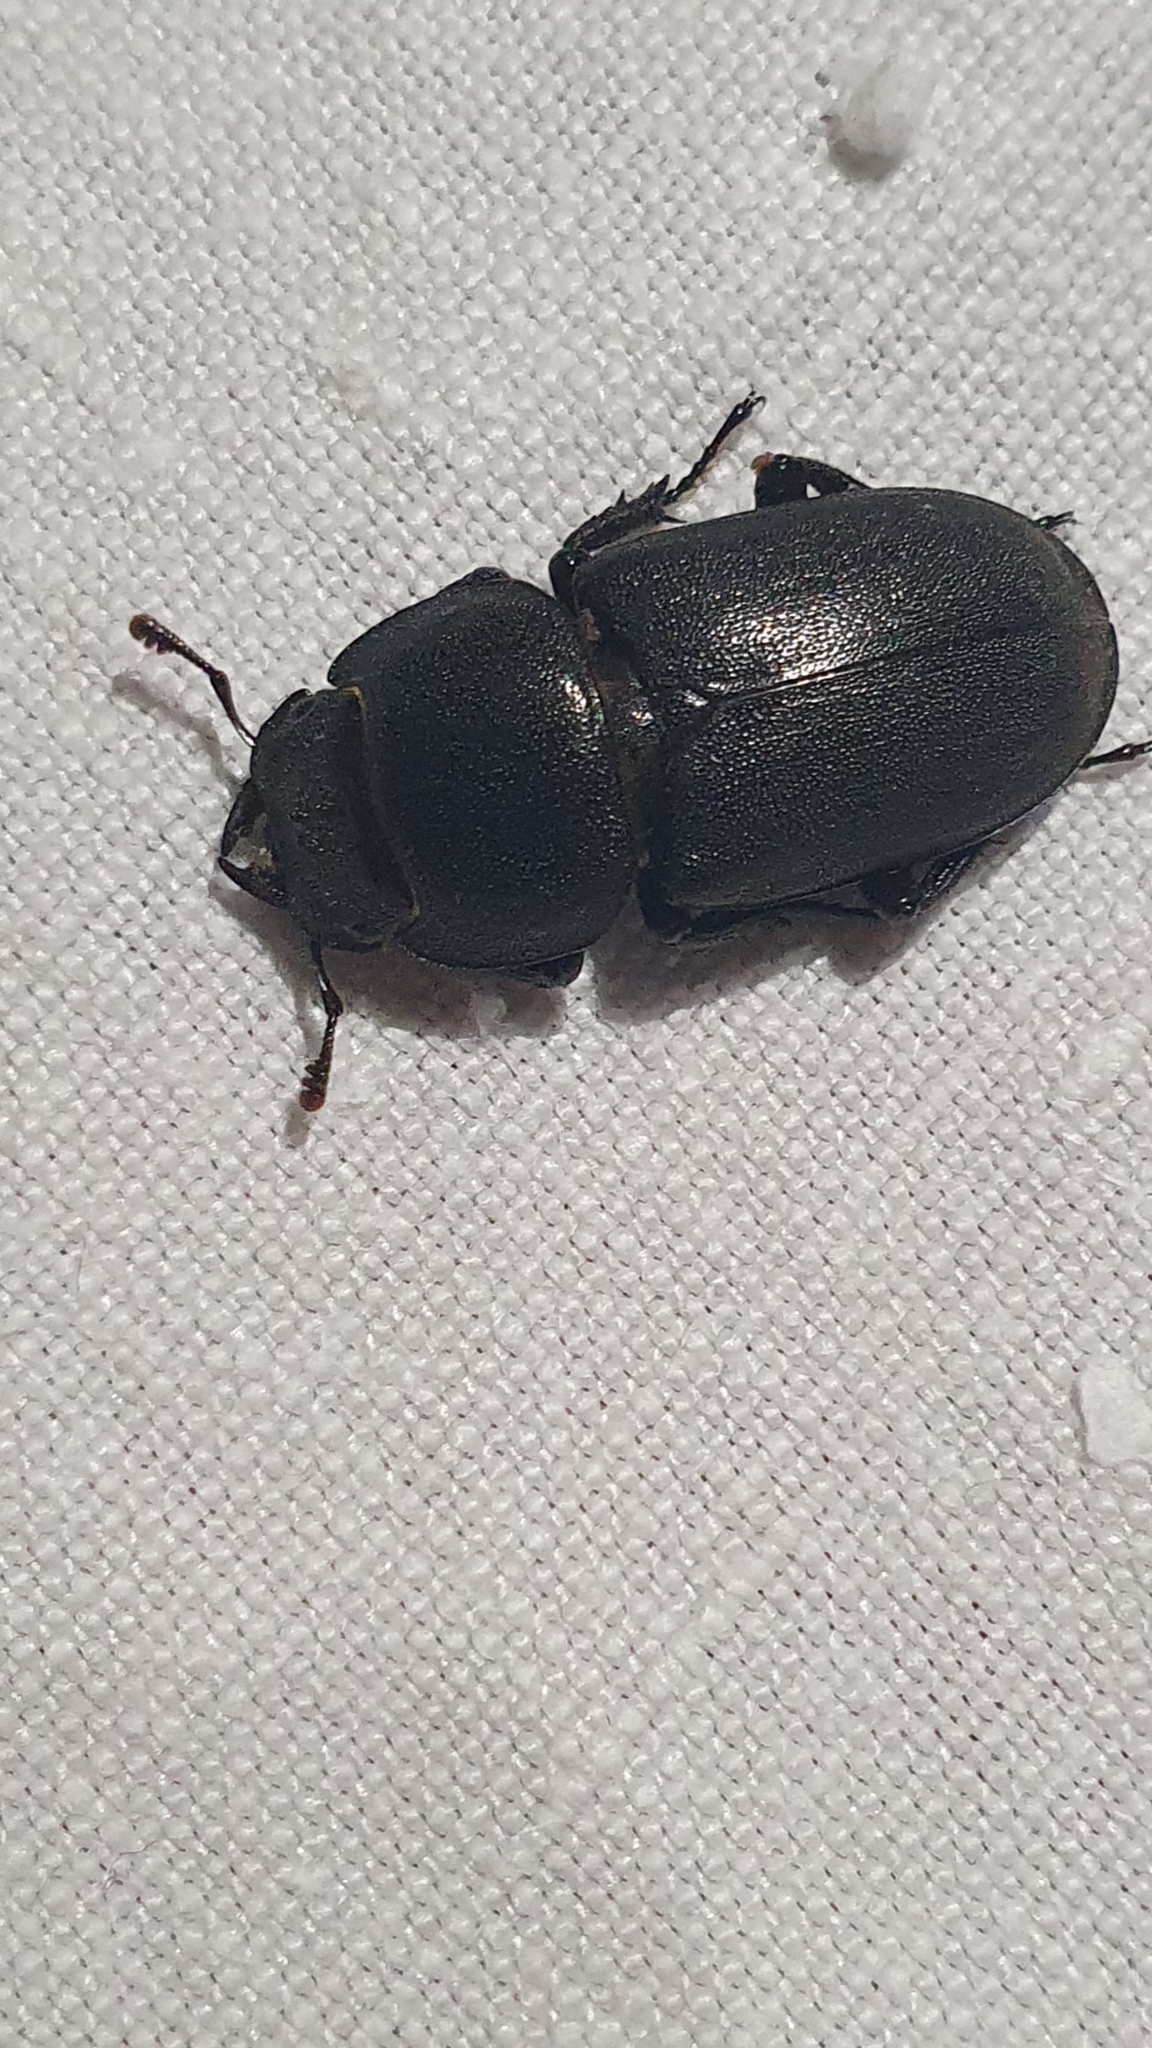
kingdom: Animalia
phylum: Arthropoda
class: Insecta
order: Coleoptera
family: Lucanidae
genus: Dorcus
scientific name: Dorcus parallelipipedus
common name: Lesser stag beetle
